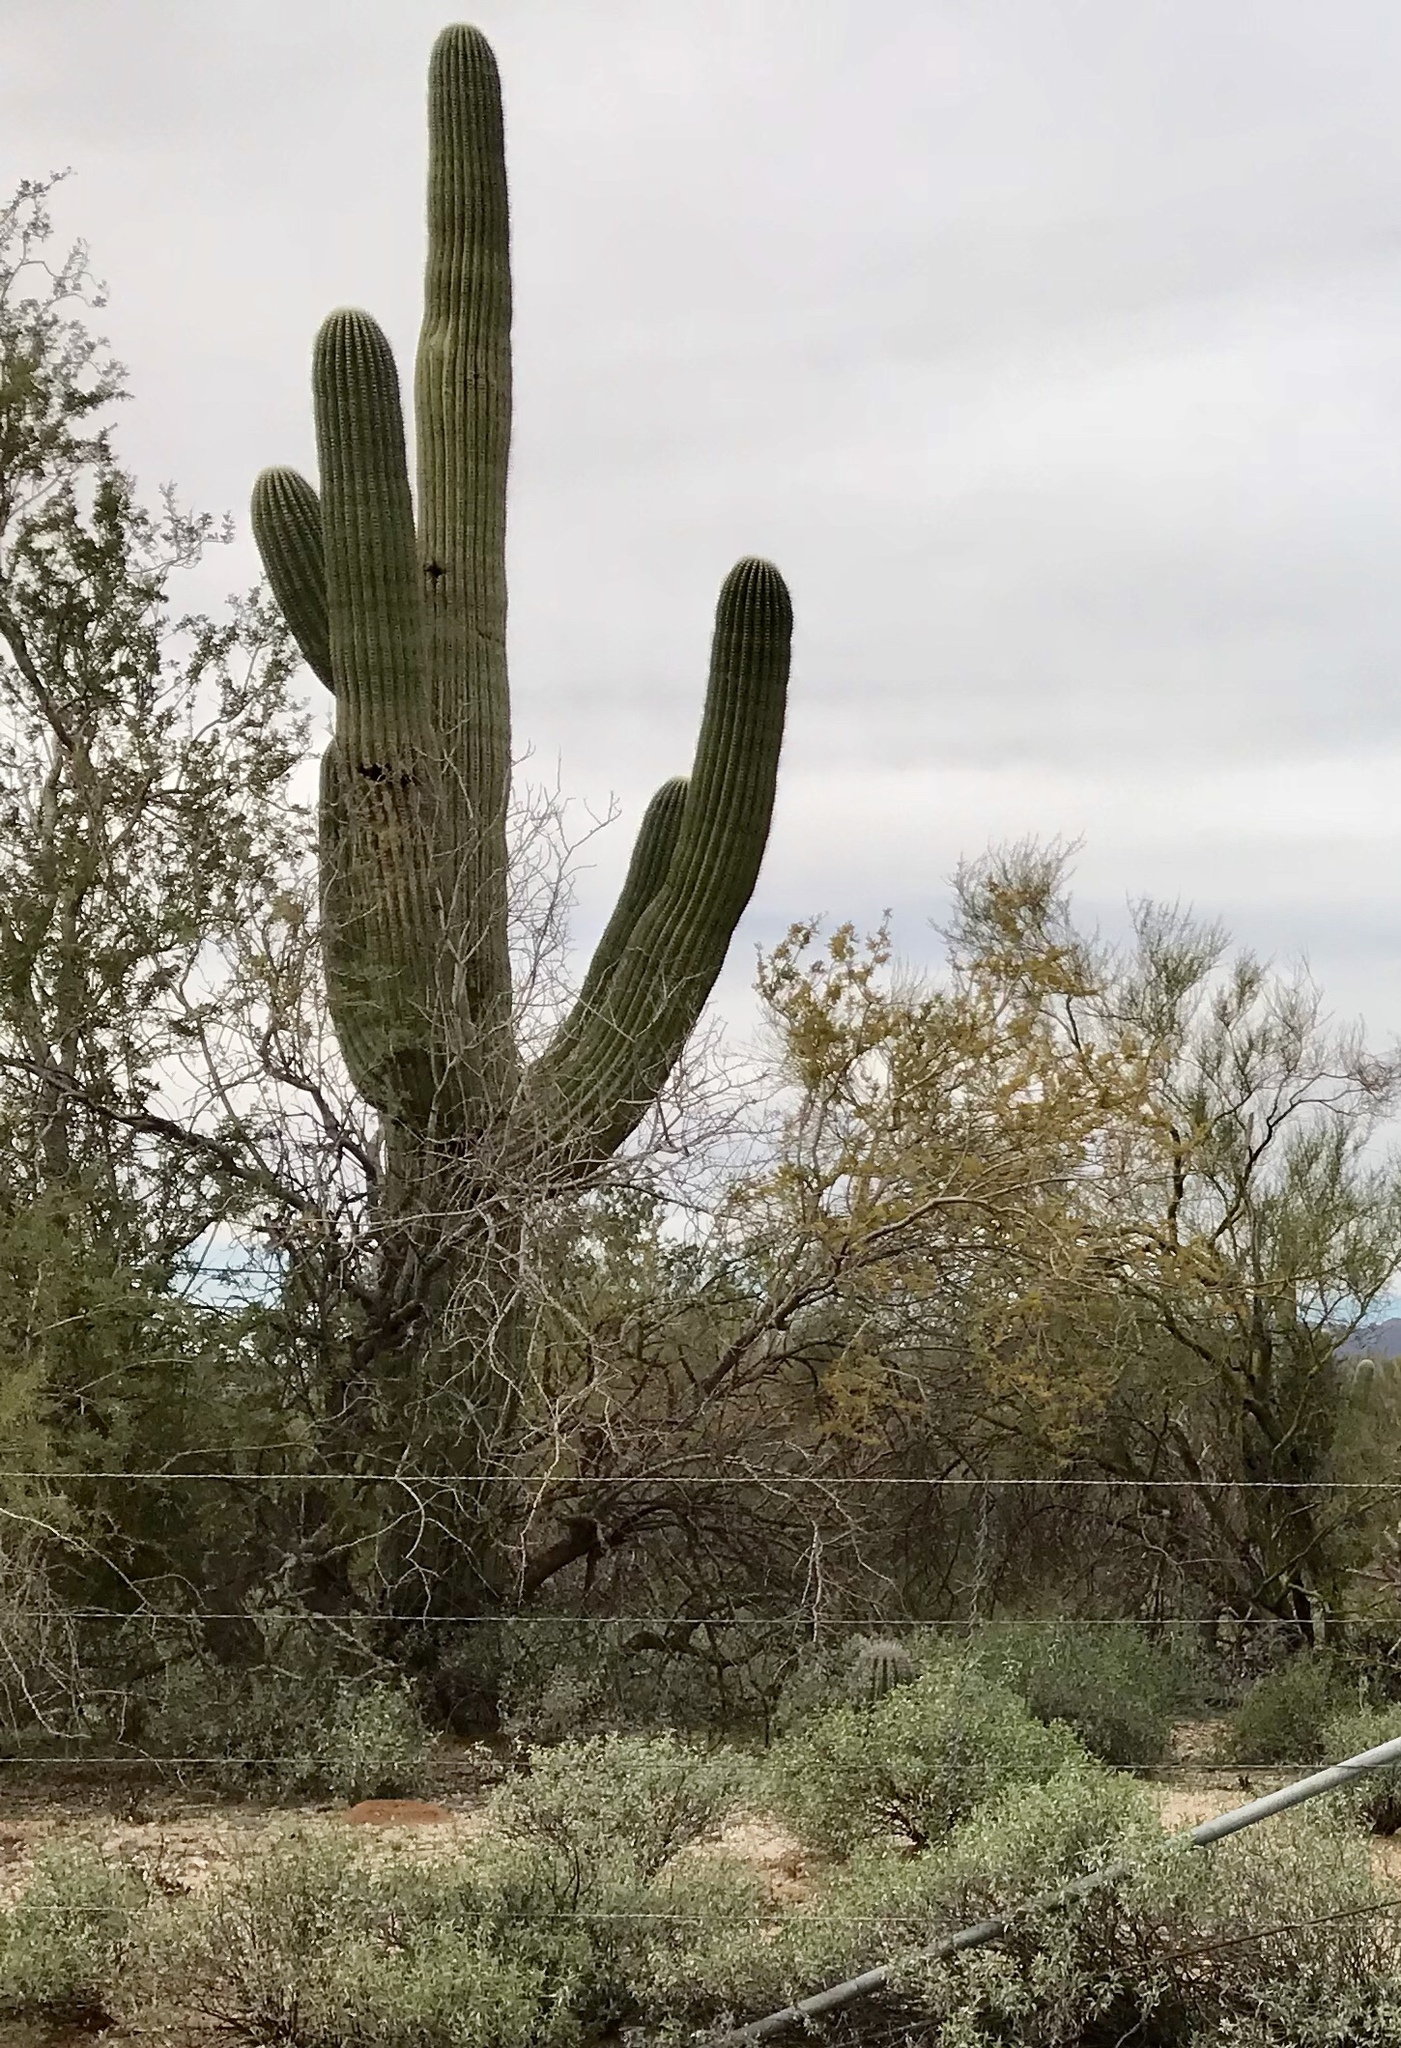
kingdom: Plantae
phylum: Tracheophyta
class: Magnoliopsida
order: Caryophyllales
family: Cactaceae
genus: Carnegiea
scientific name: Carnegiea gigantea
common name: Saguaro
